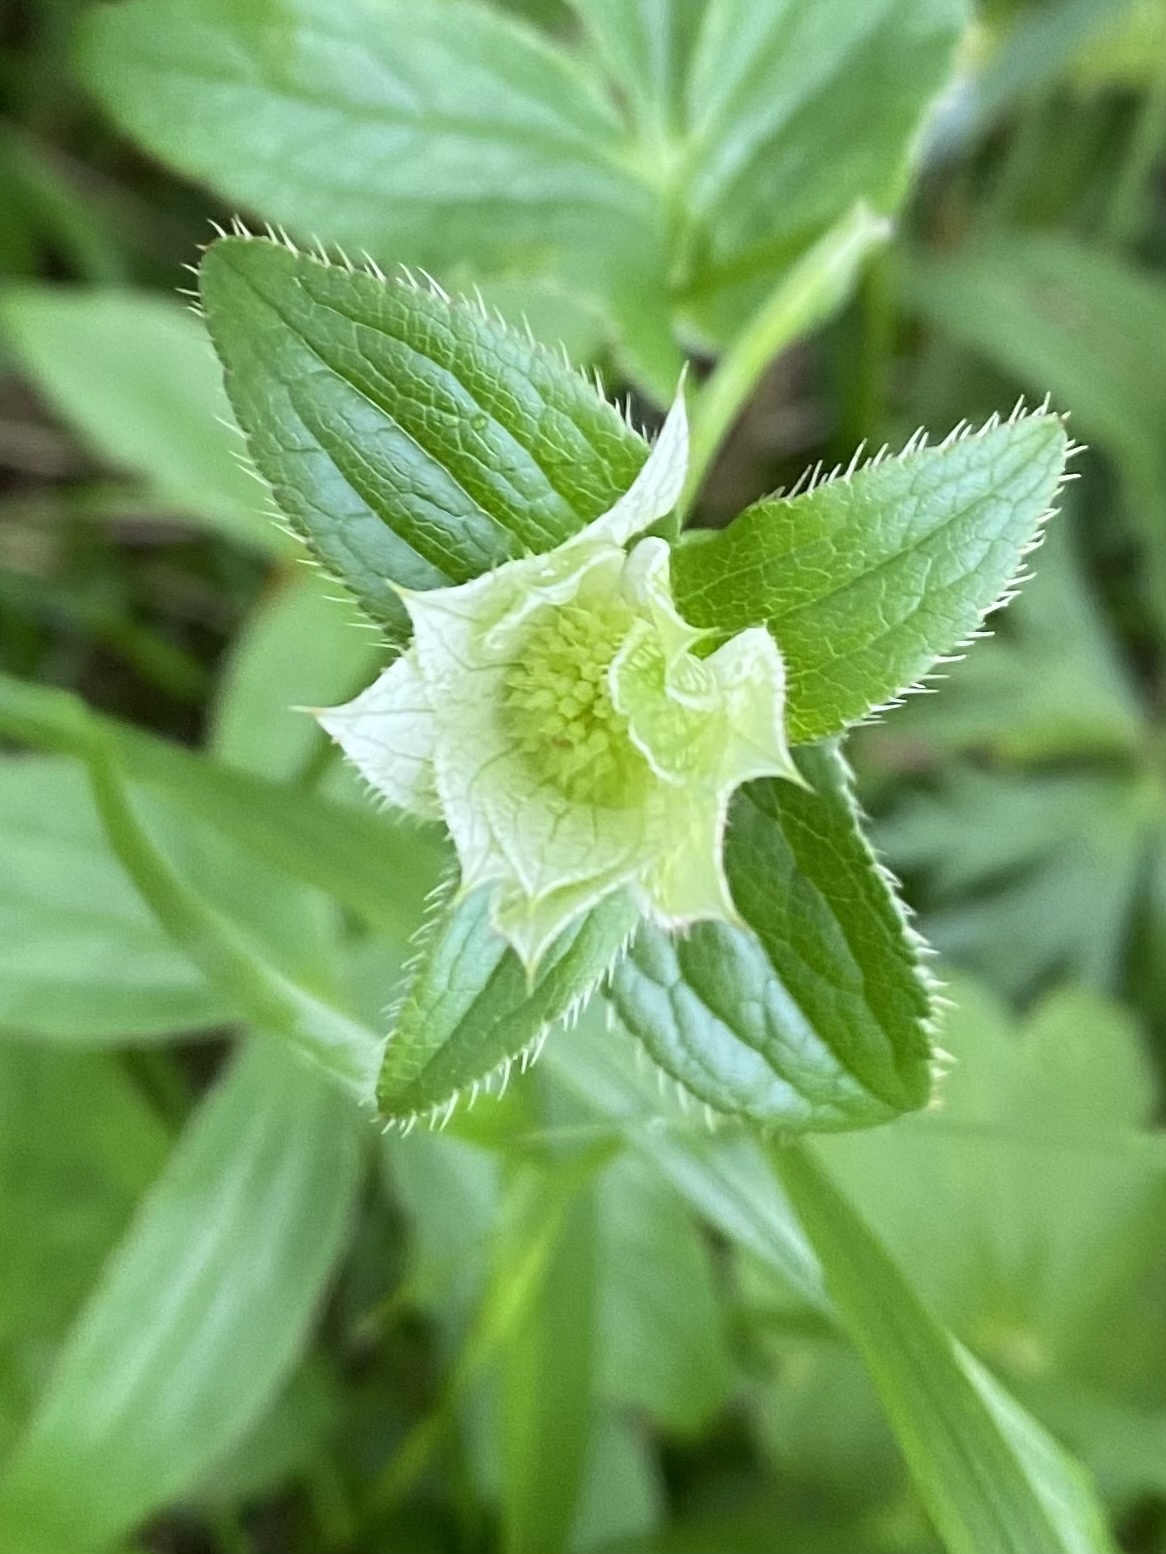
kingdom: Plantae
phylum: Tracheophyta
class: Magnoliopsida
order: Apiales
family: Apiaceae
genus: Astrantia
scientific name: Astrantia maxima
